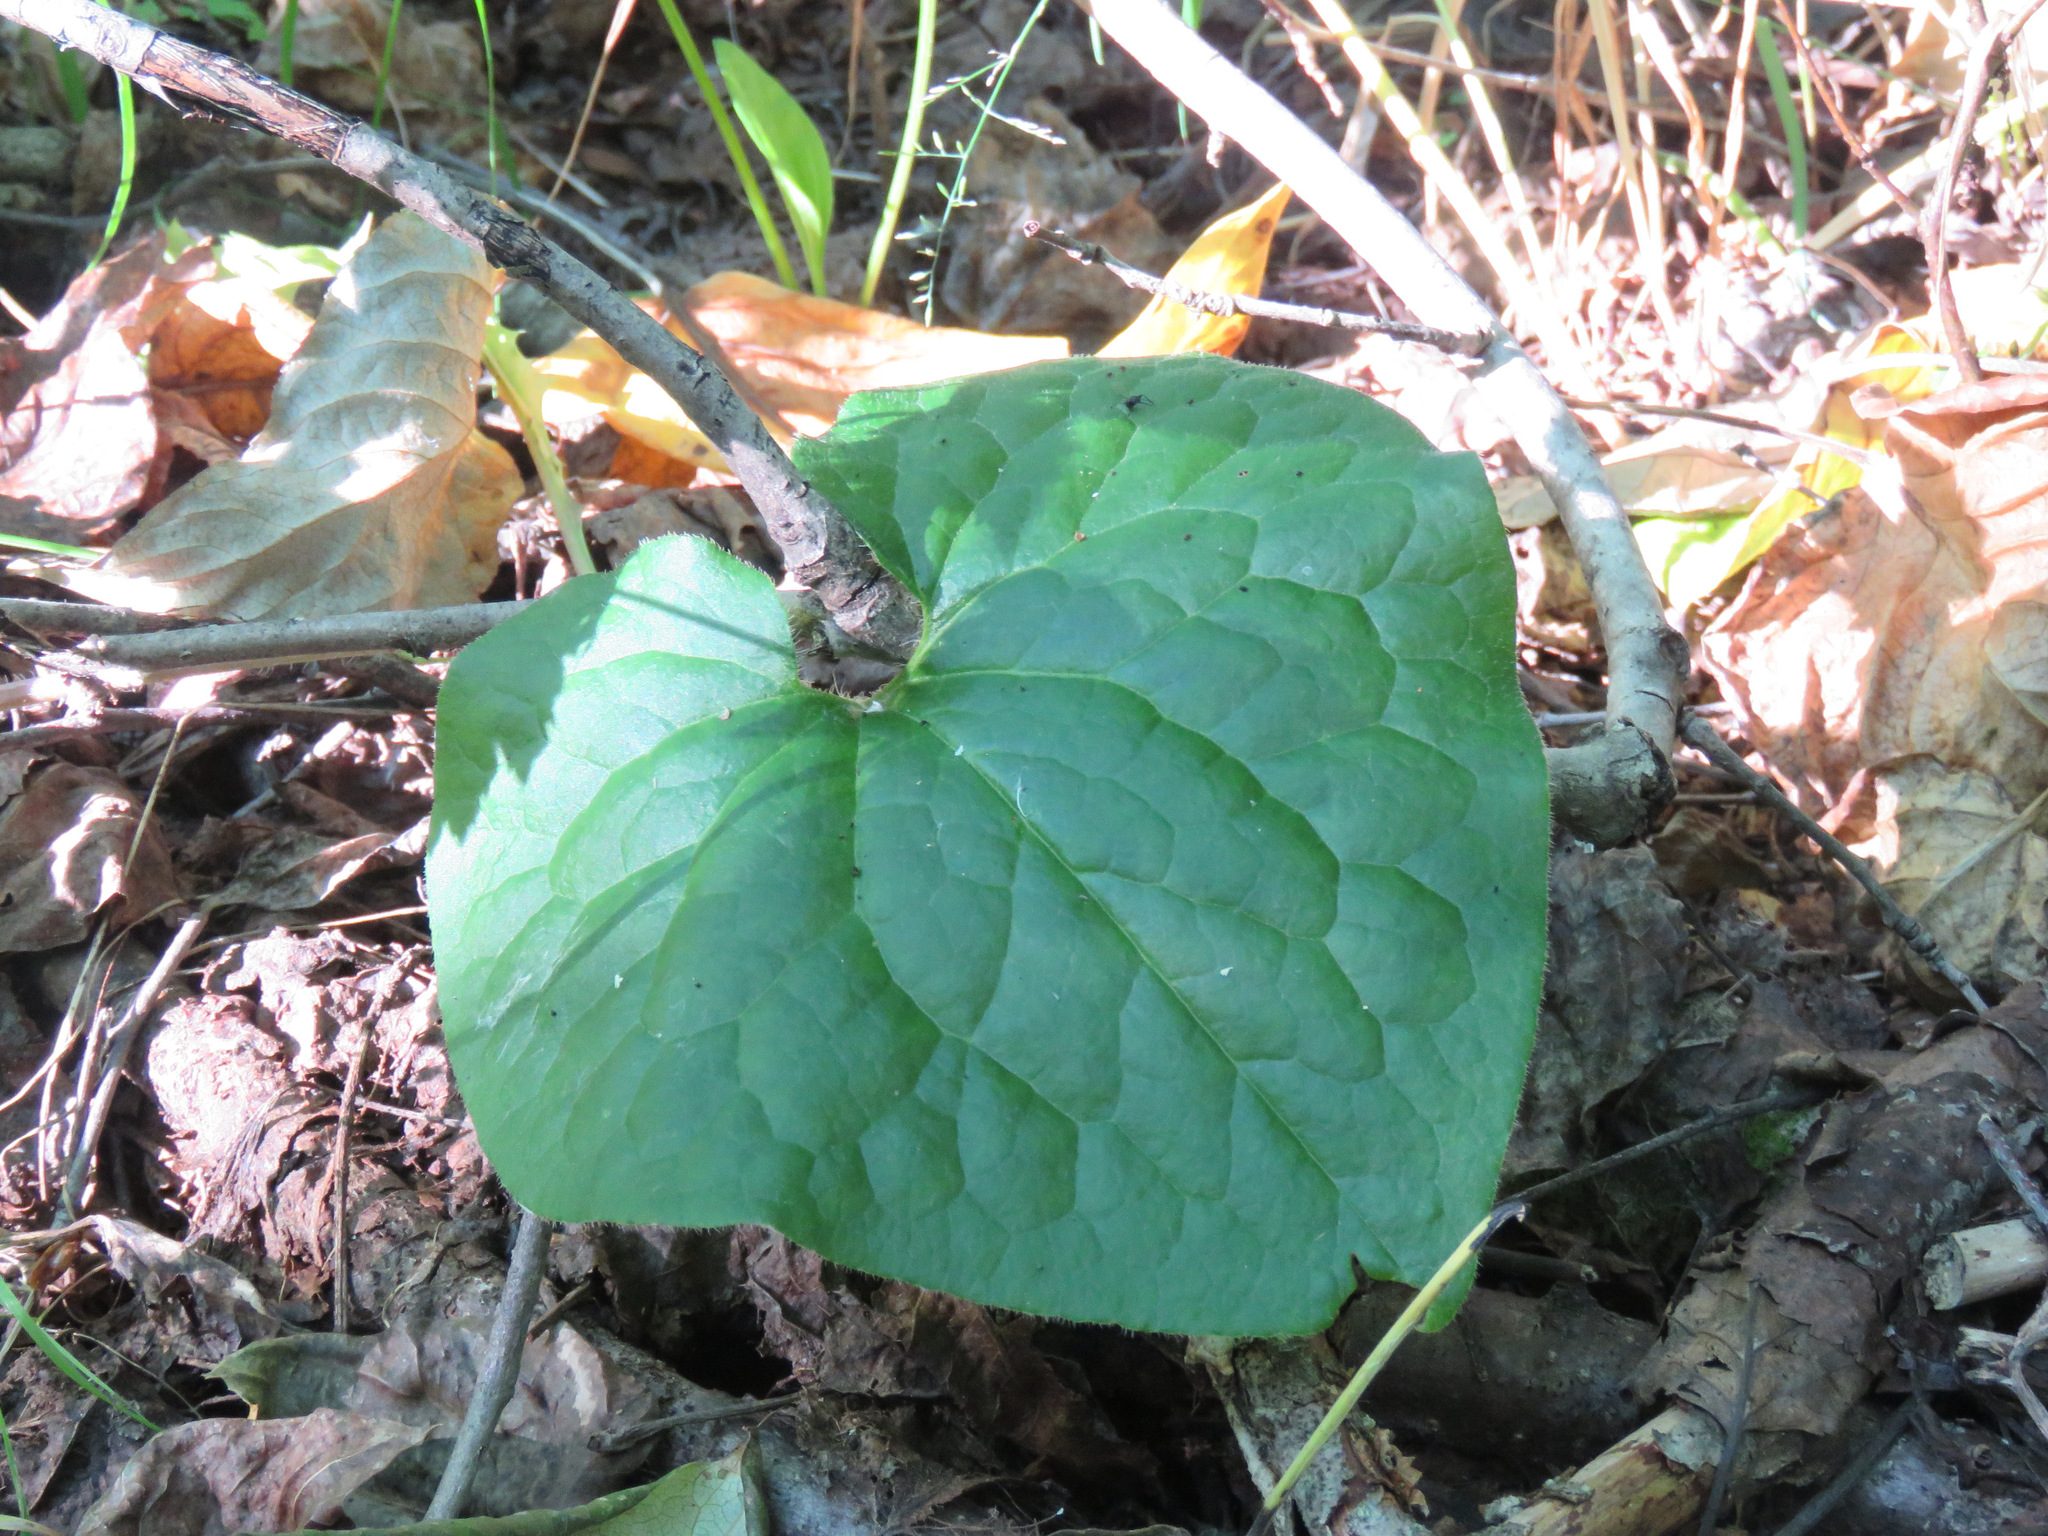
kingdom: Plantae
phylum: Tracheophyta
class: Magnoliopsida
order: Piperales
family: Aristolochiaceae
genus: Asarum
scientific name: Asarum caudatum
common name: Wild ginger
